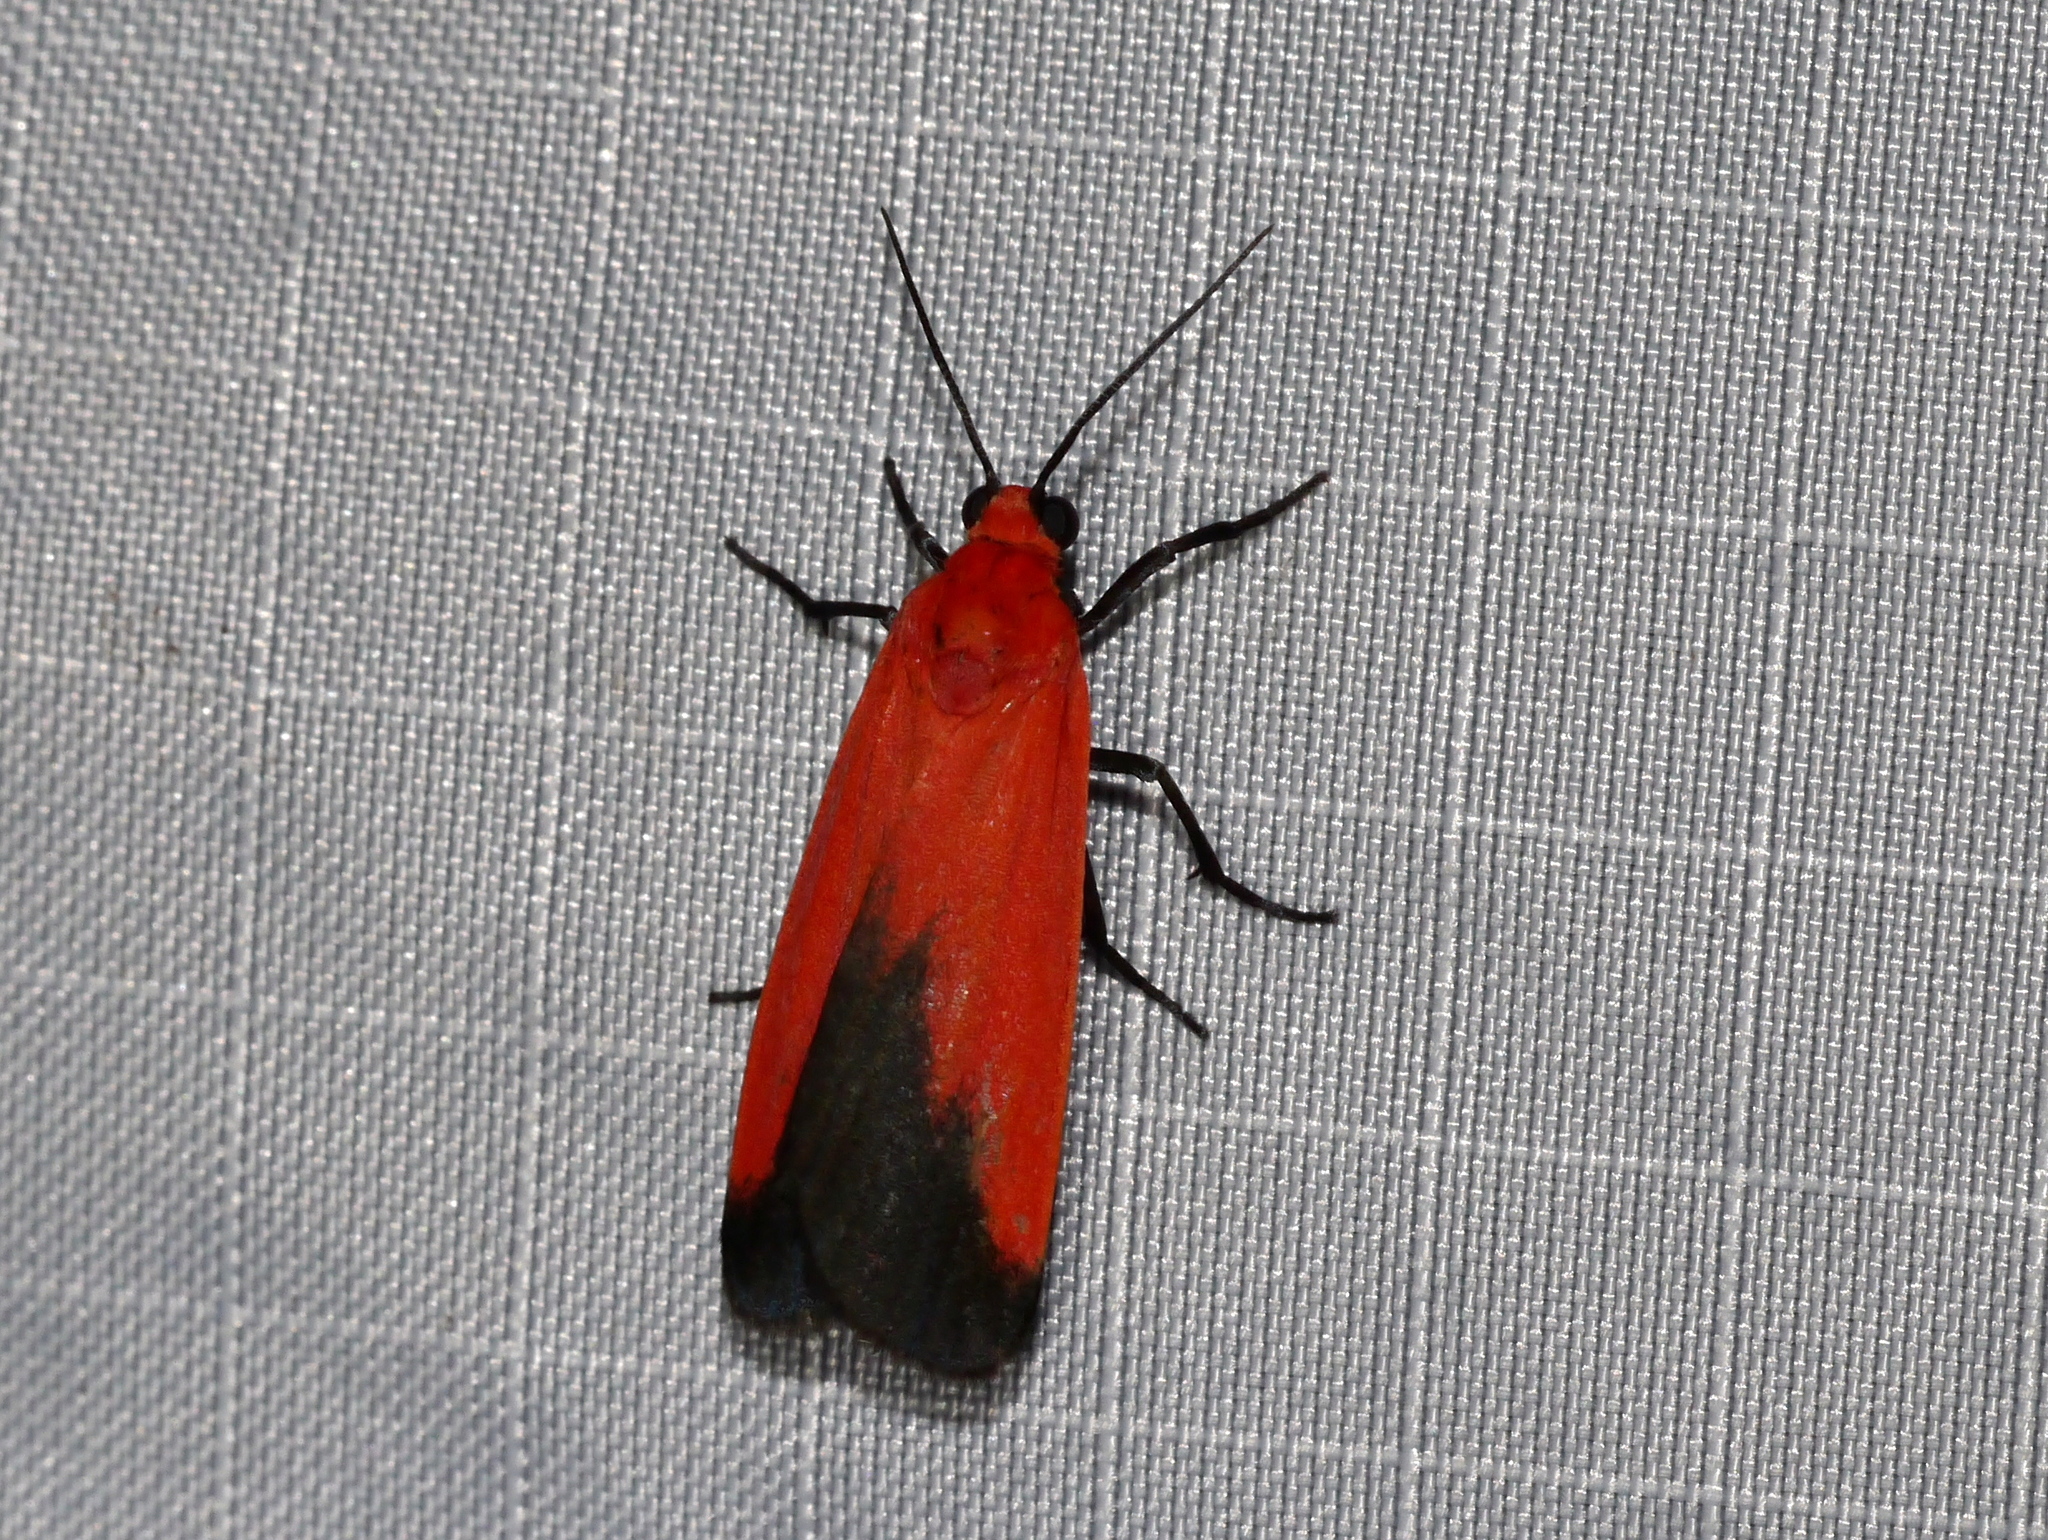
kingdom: Animalia
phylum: Arthropoda
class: Insecta
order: Lepidoptera
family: Erebidae
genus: Ptychoglene
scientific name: Ptychoglene coccinea
